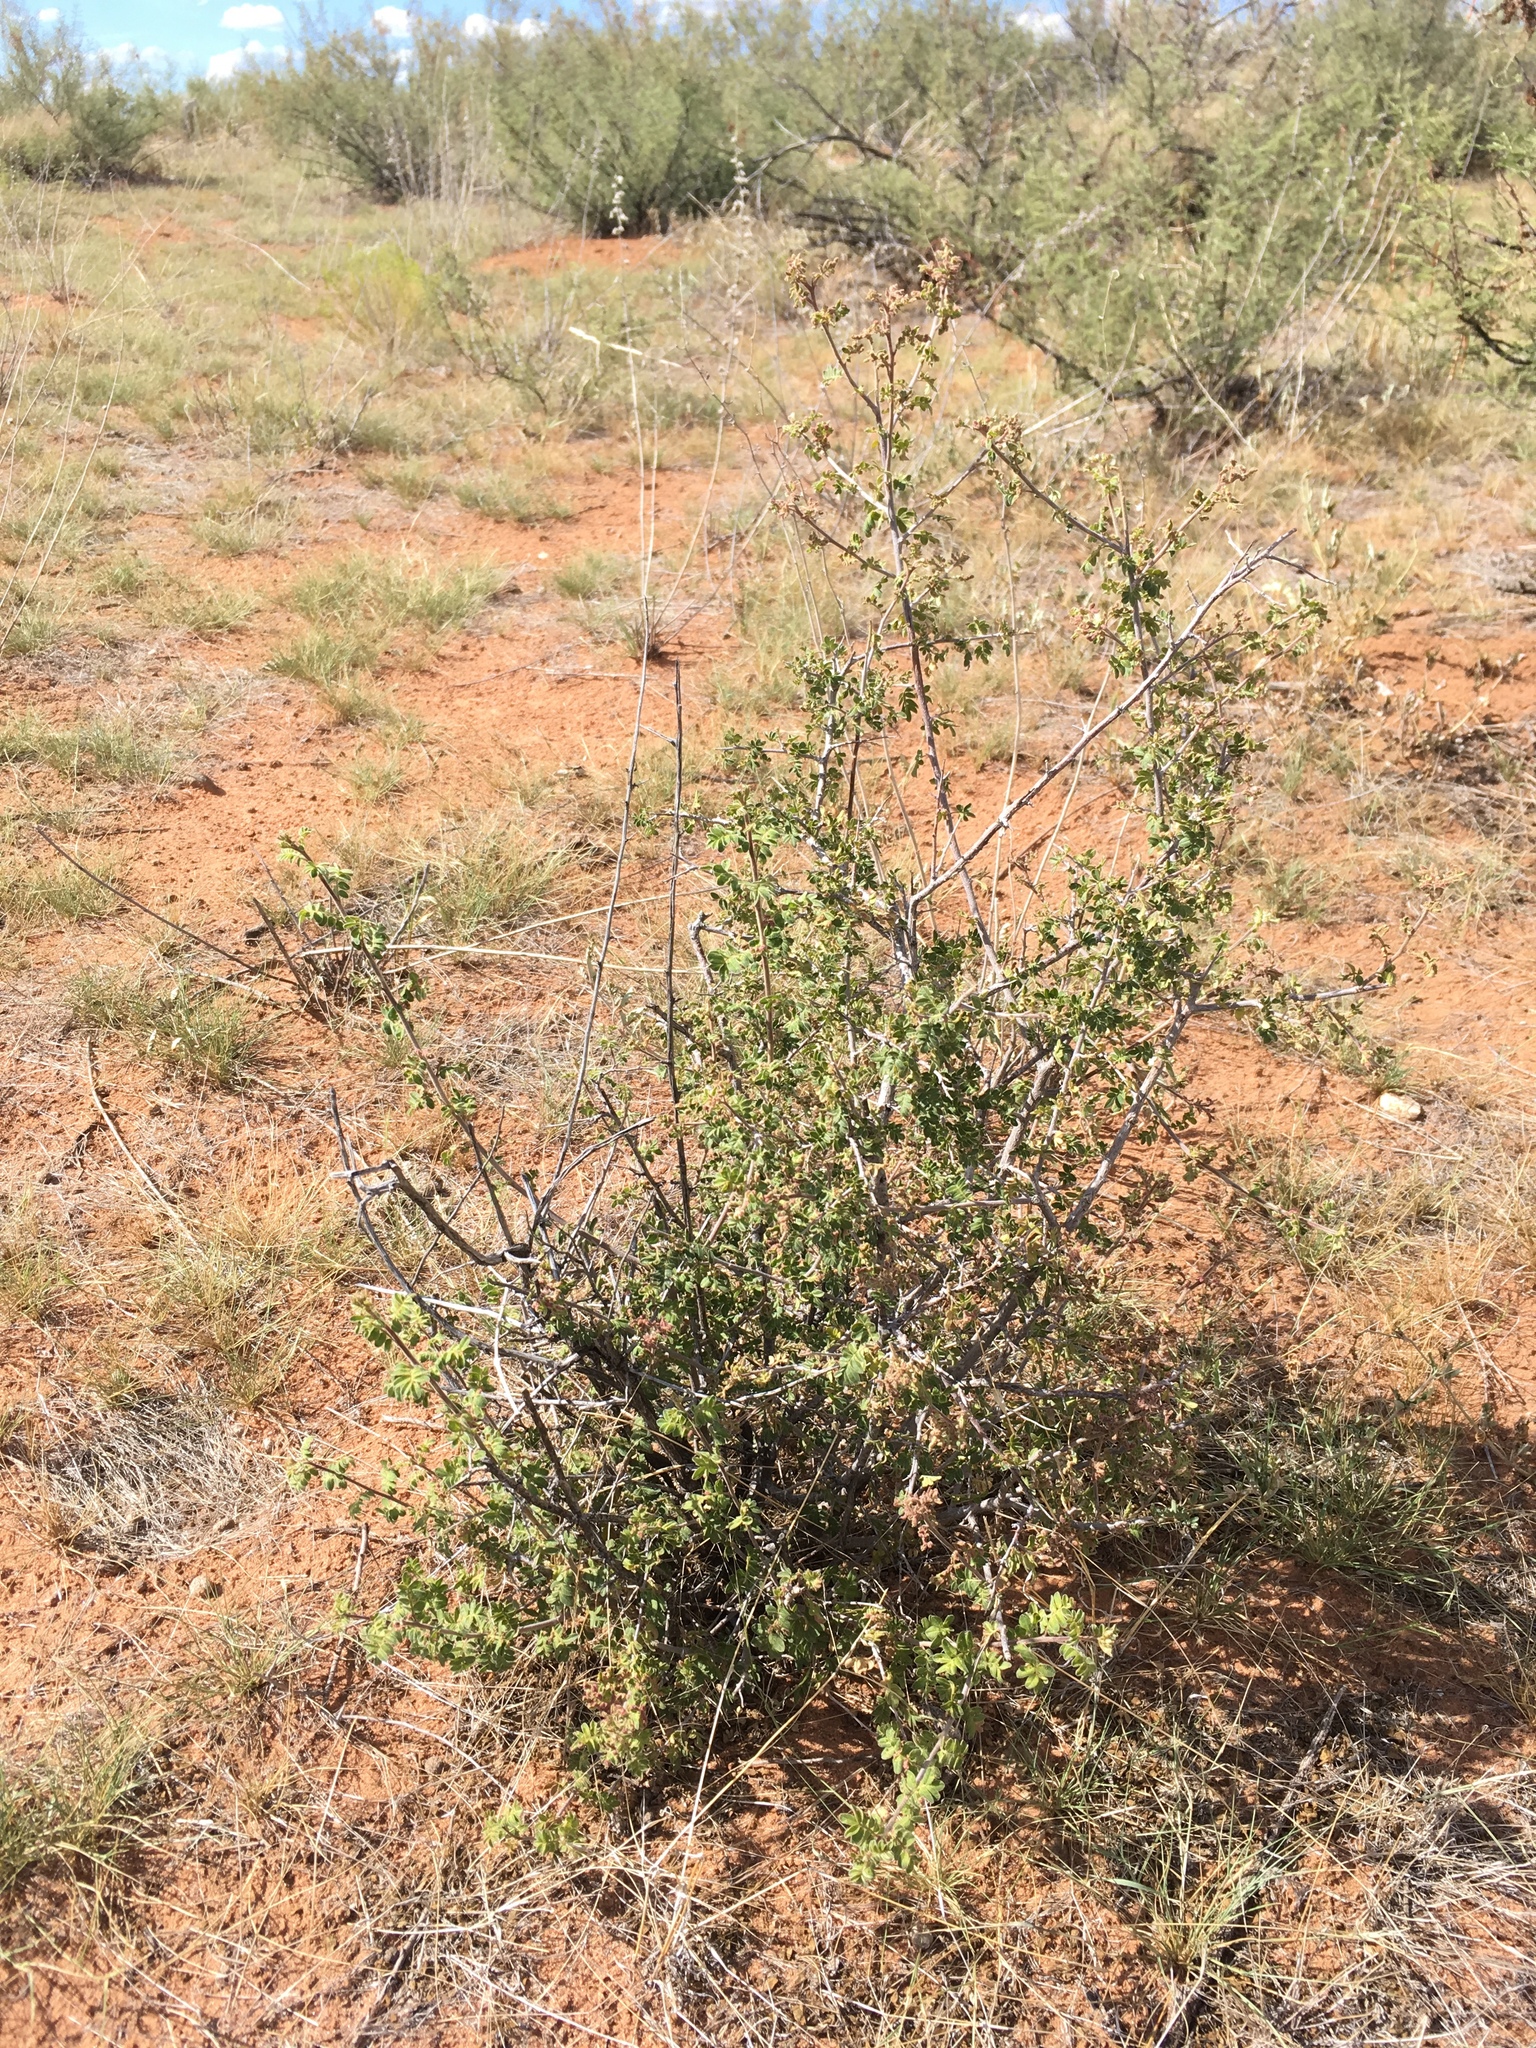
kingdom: Plantae
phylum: Tracheophyta
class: Magnoliopsida
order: Sapindales
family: Anacardiaceae
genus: Rhus
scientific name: Rhus microphylla
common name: Desert sumac
